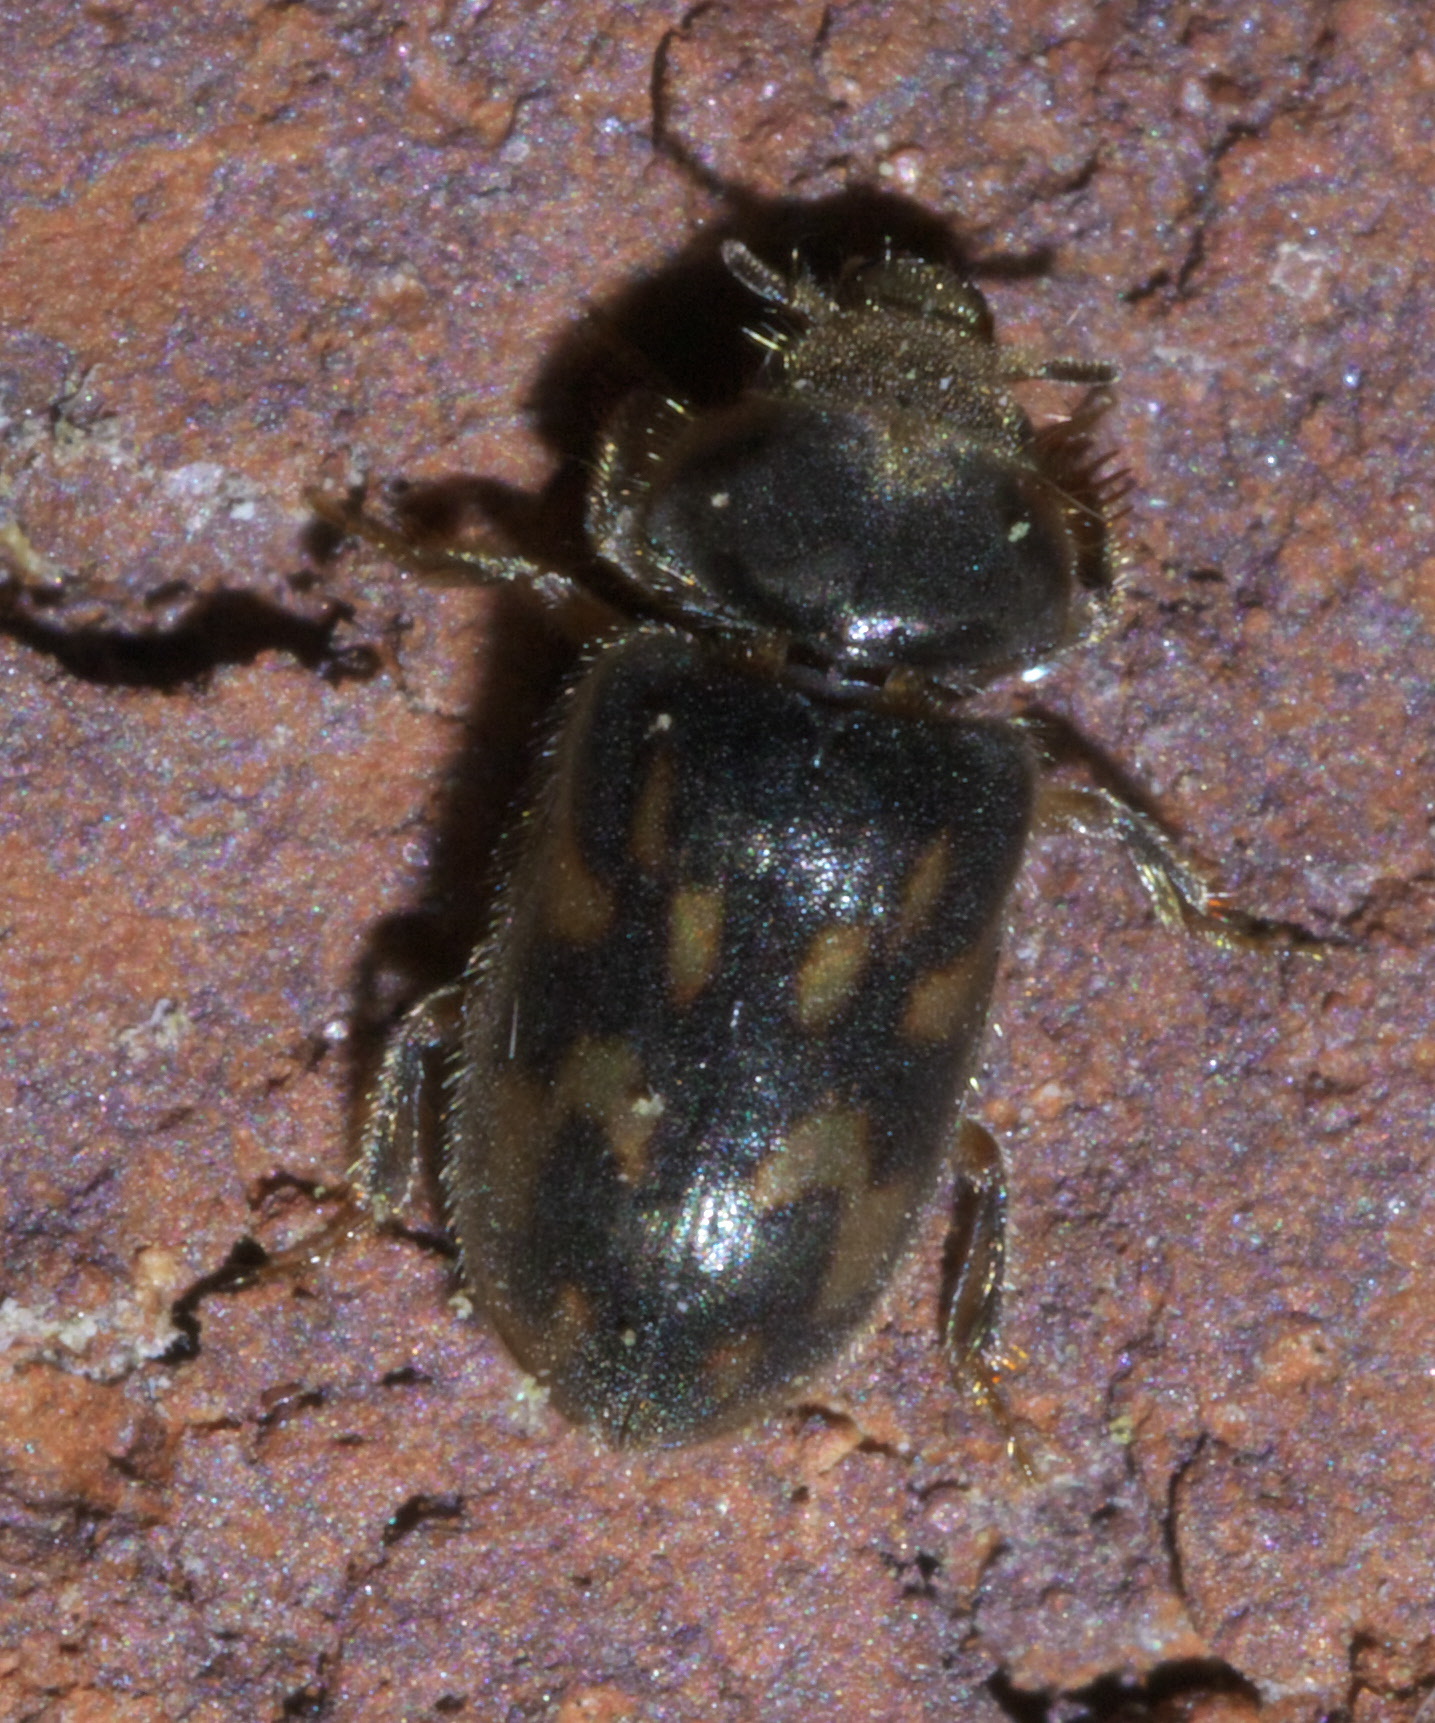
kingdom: Animalia
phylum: Arthropoda
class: Insecta
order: Coleoptera
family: Heteroceridae
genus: Lanternarius
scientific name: Lanternarius mollinus
